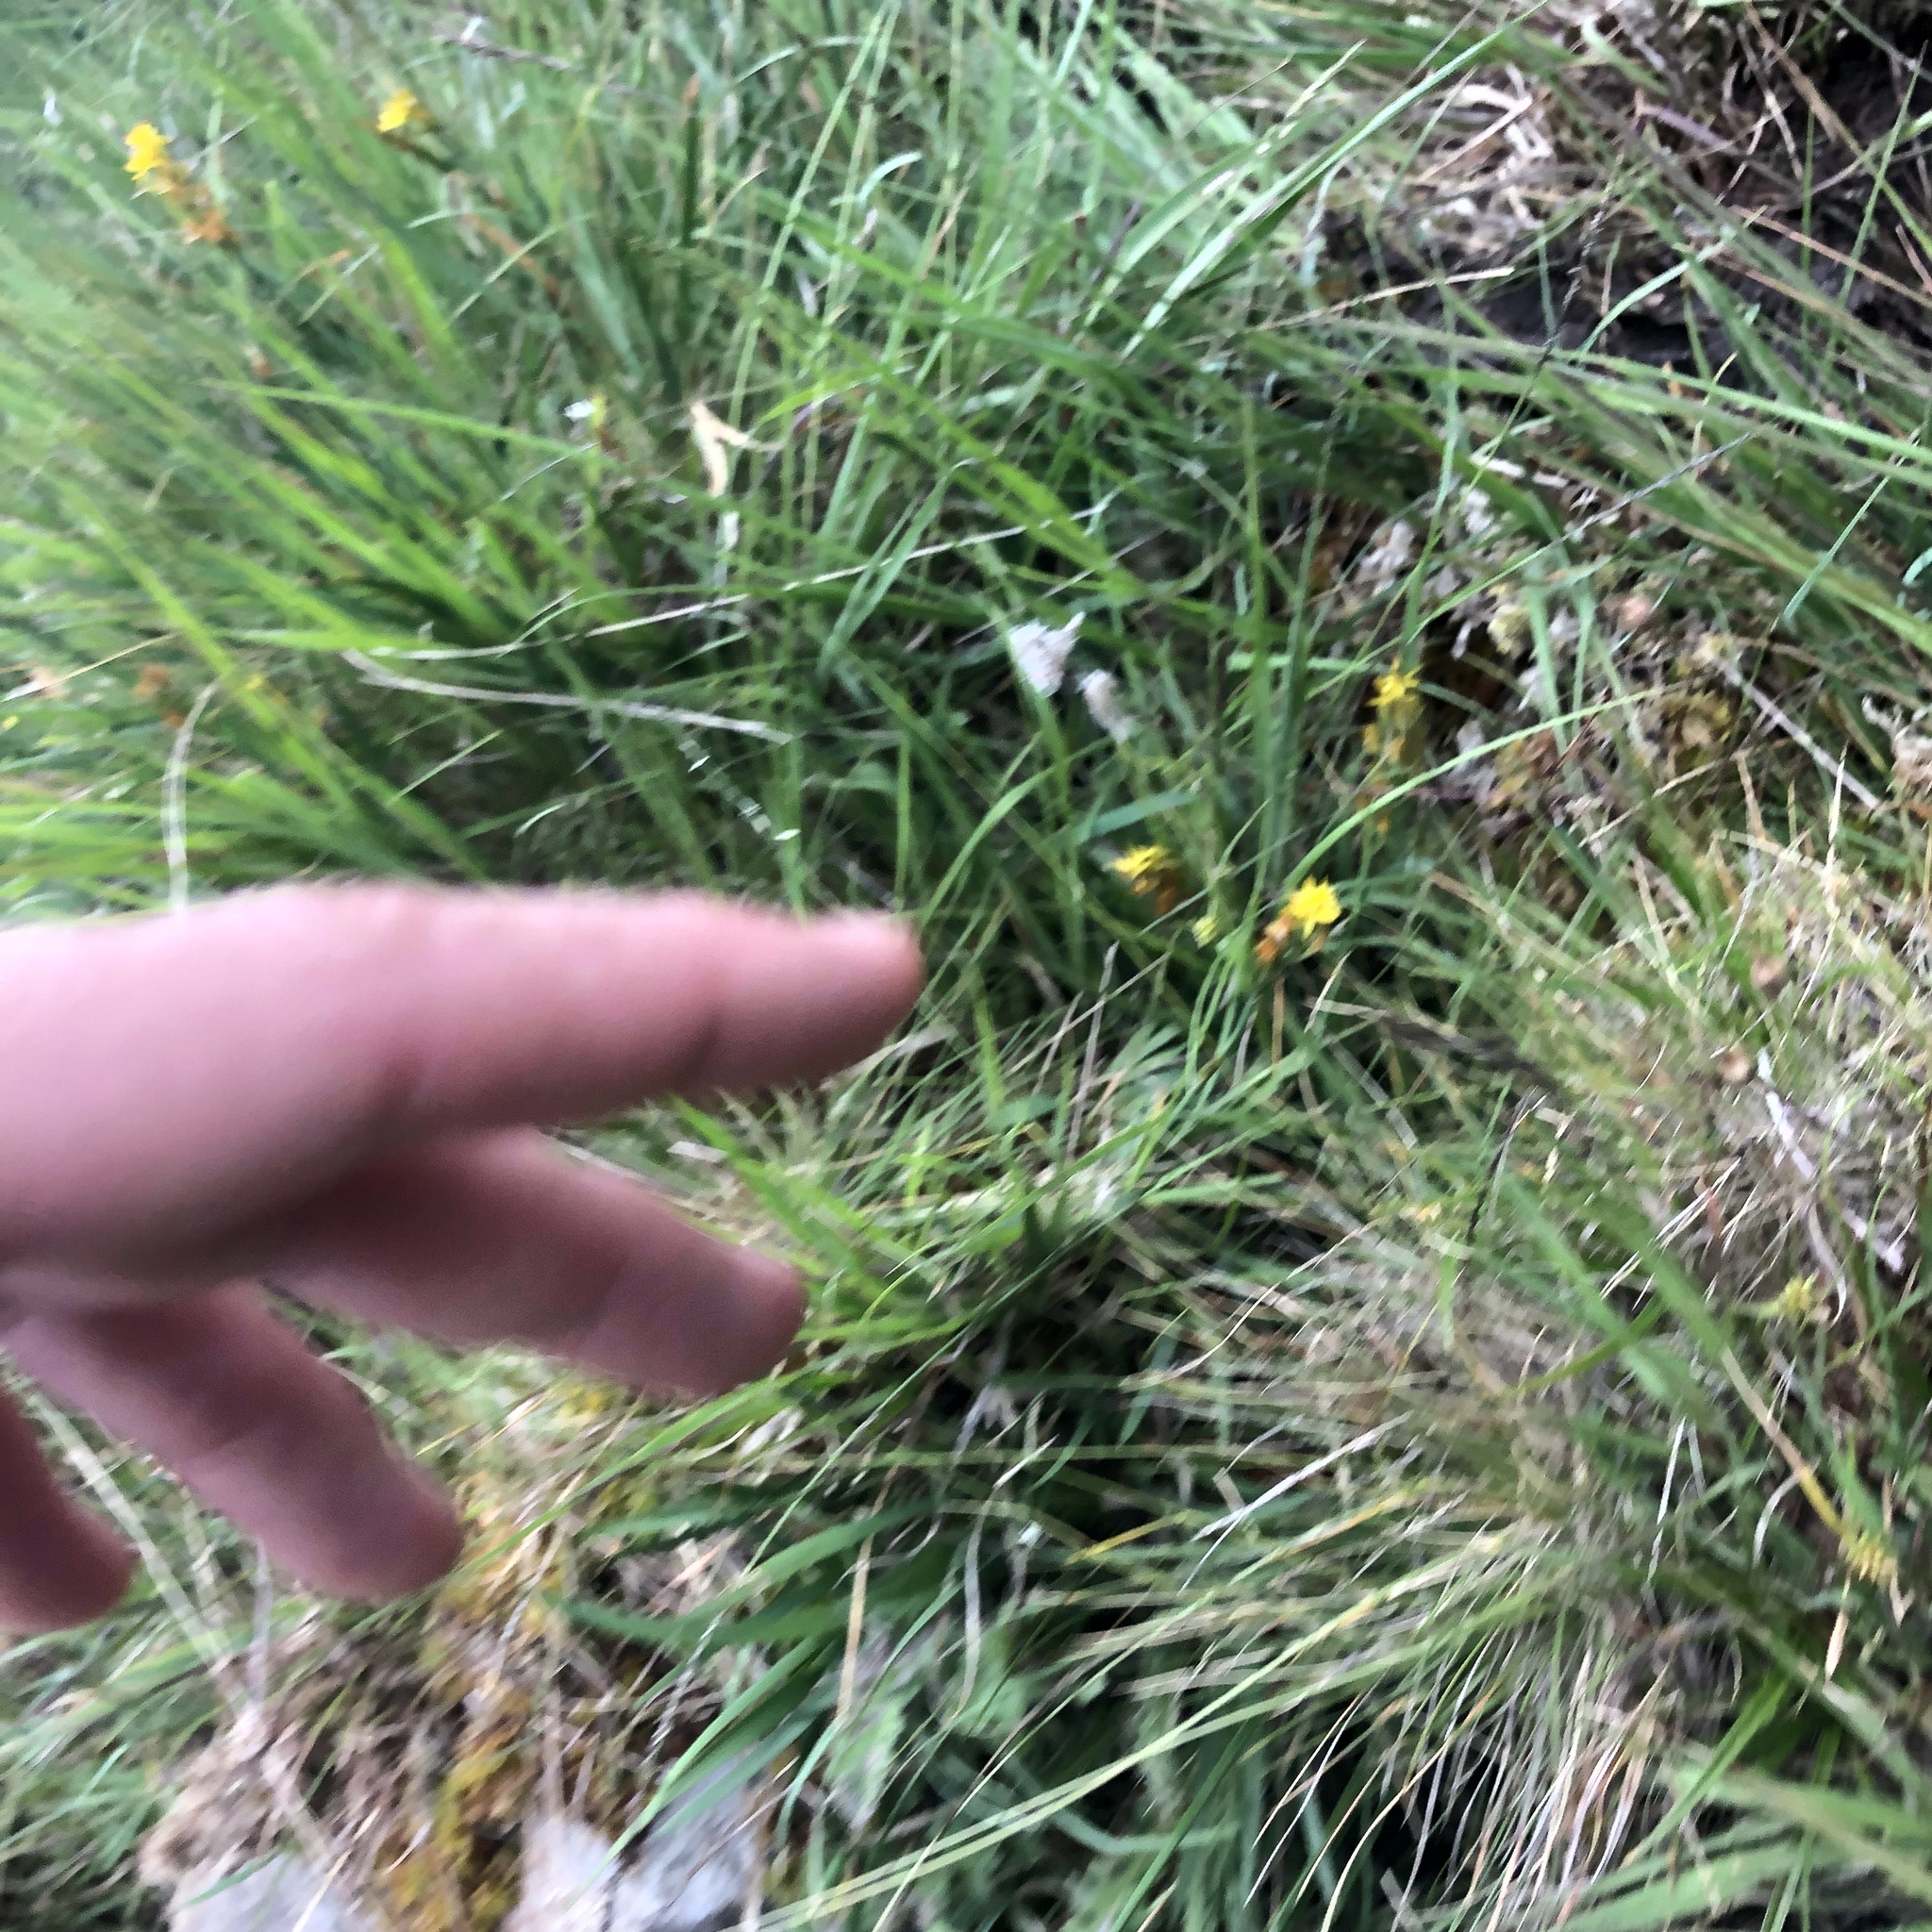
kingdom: Plantae
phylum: Tracheophyta
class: Magnoliopsida
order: Lamiales
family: Lentibulariaceae
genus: Pinguicula
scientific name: Pinguicula vulgaris
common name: Common butterwort
